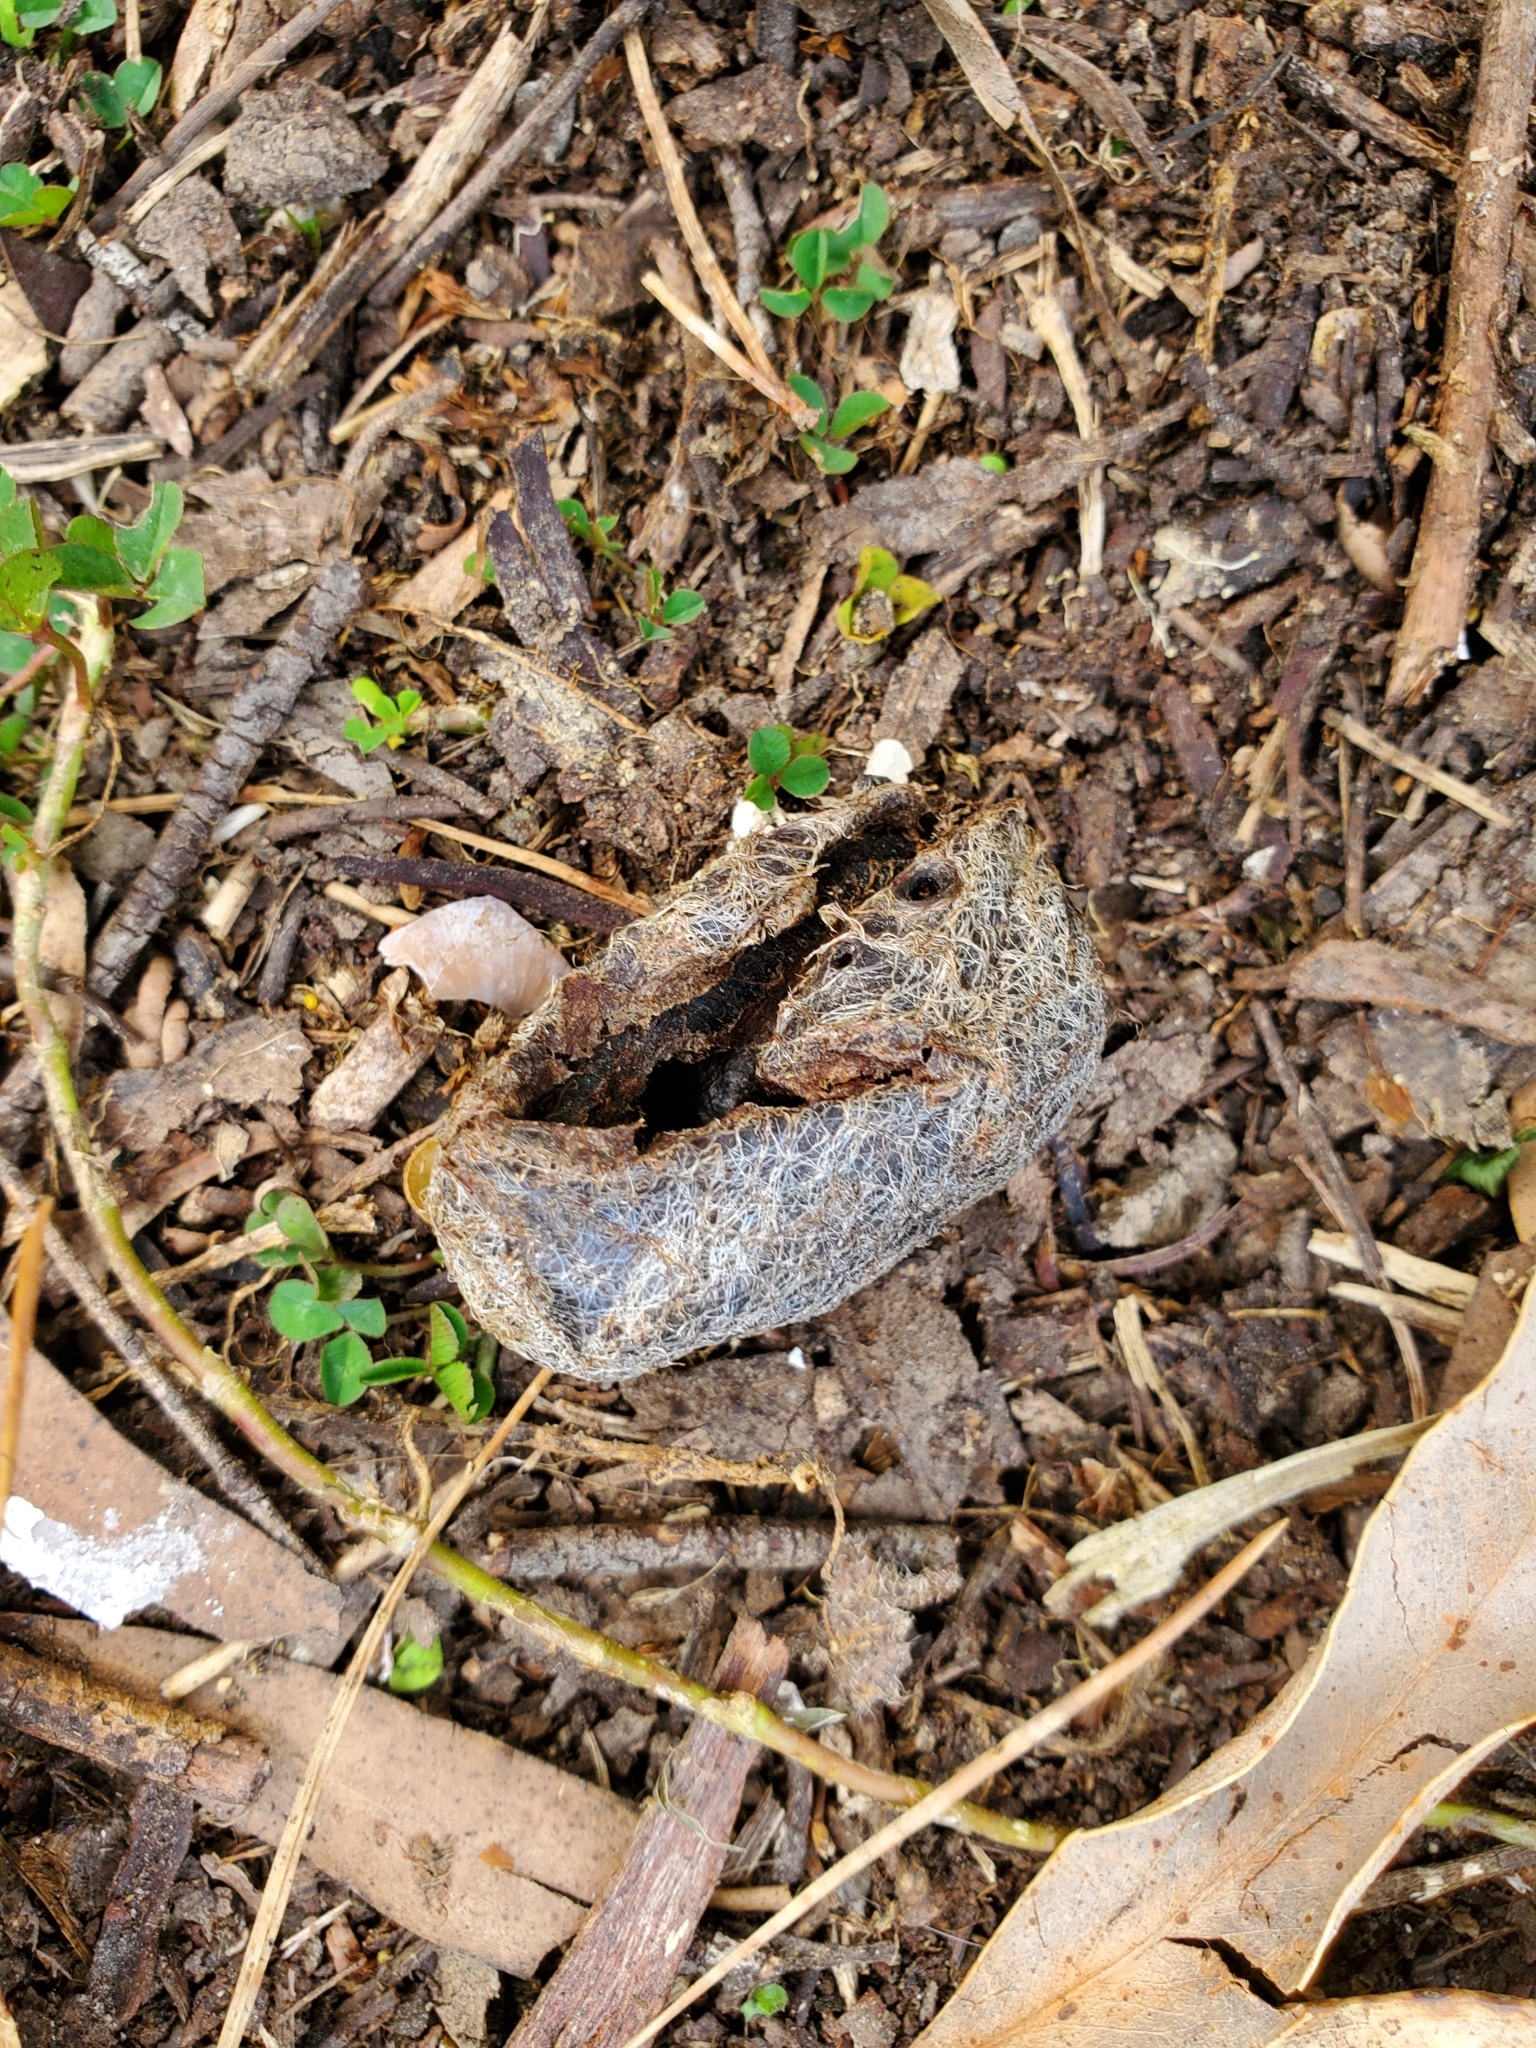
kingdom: Animalia
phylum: Arthropoda
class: Insecta
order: Lepidoptera
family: Saturniidae
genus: Opodiphthera
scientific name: Opodiphthera
